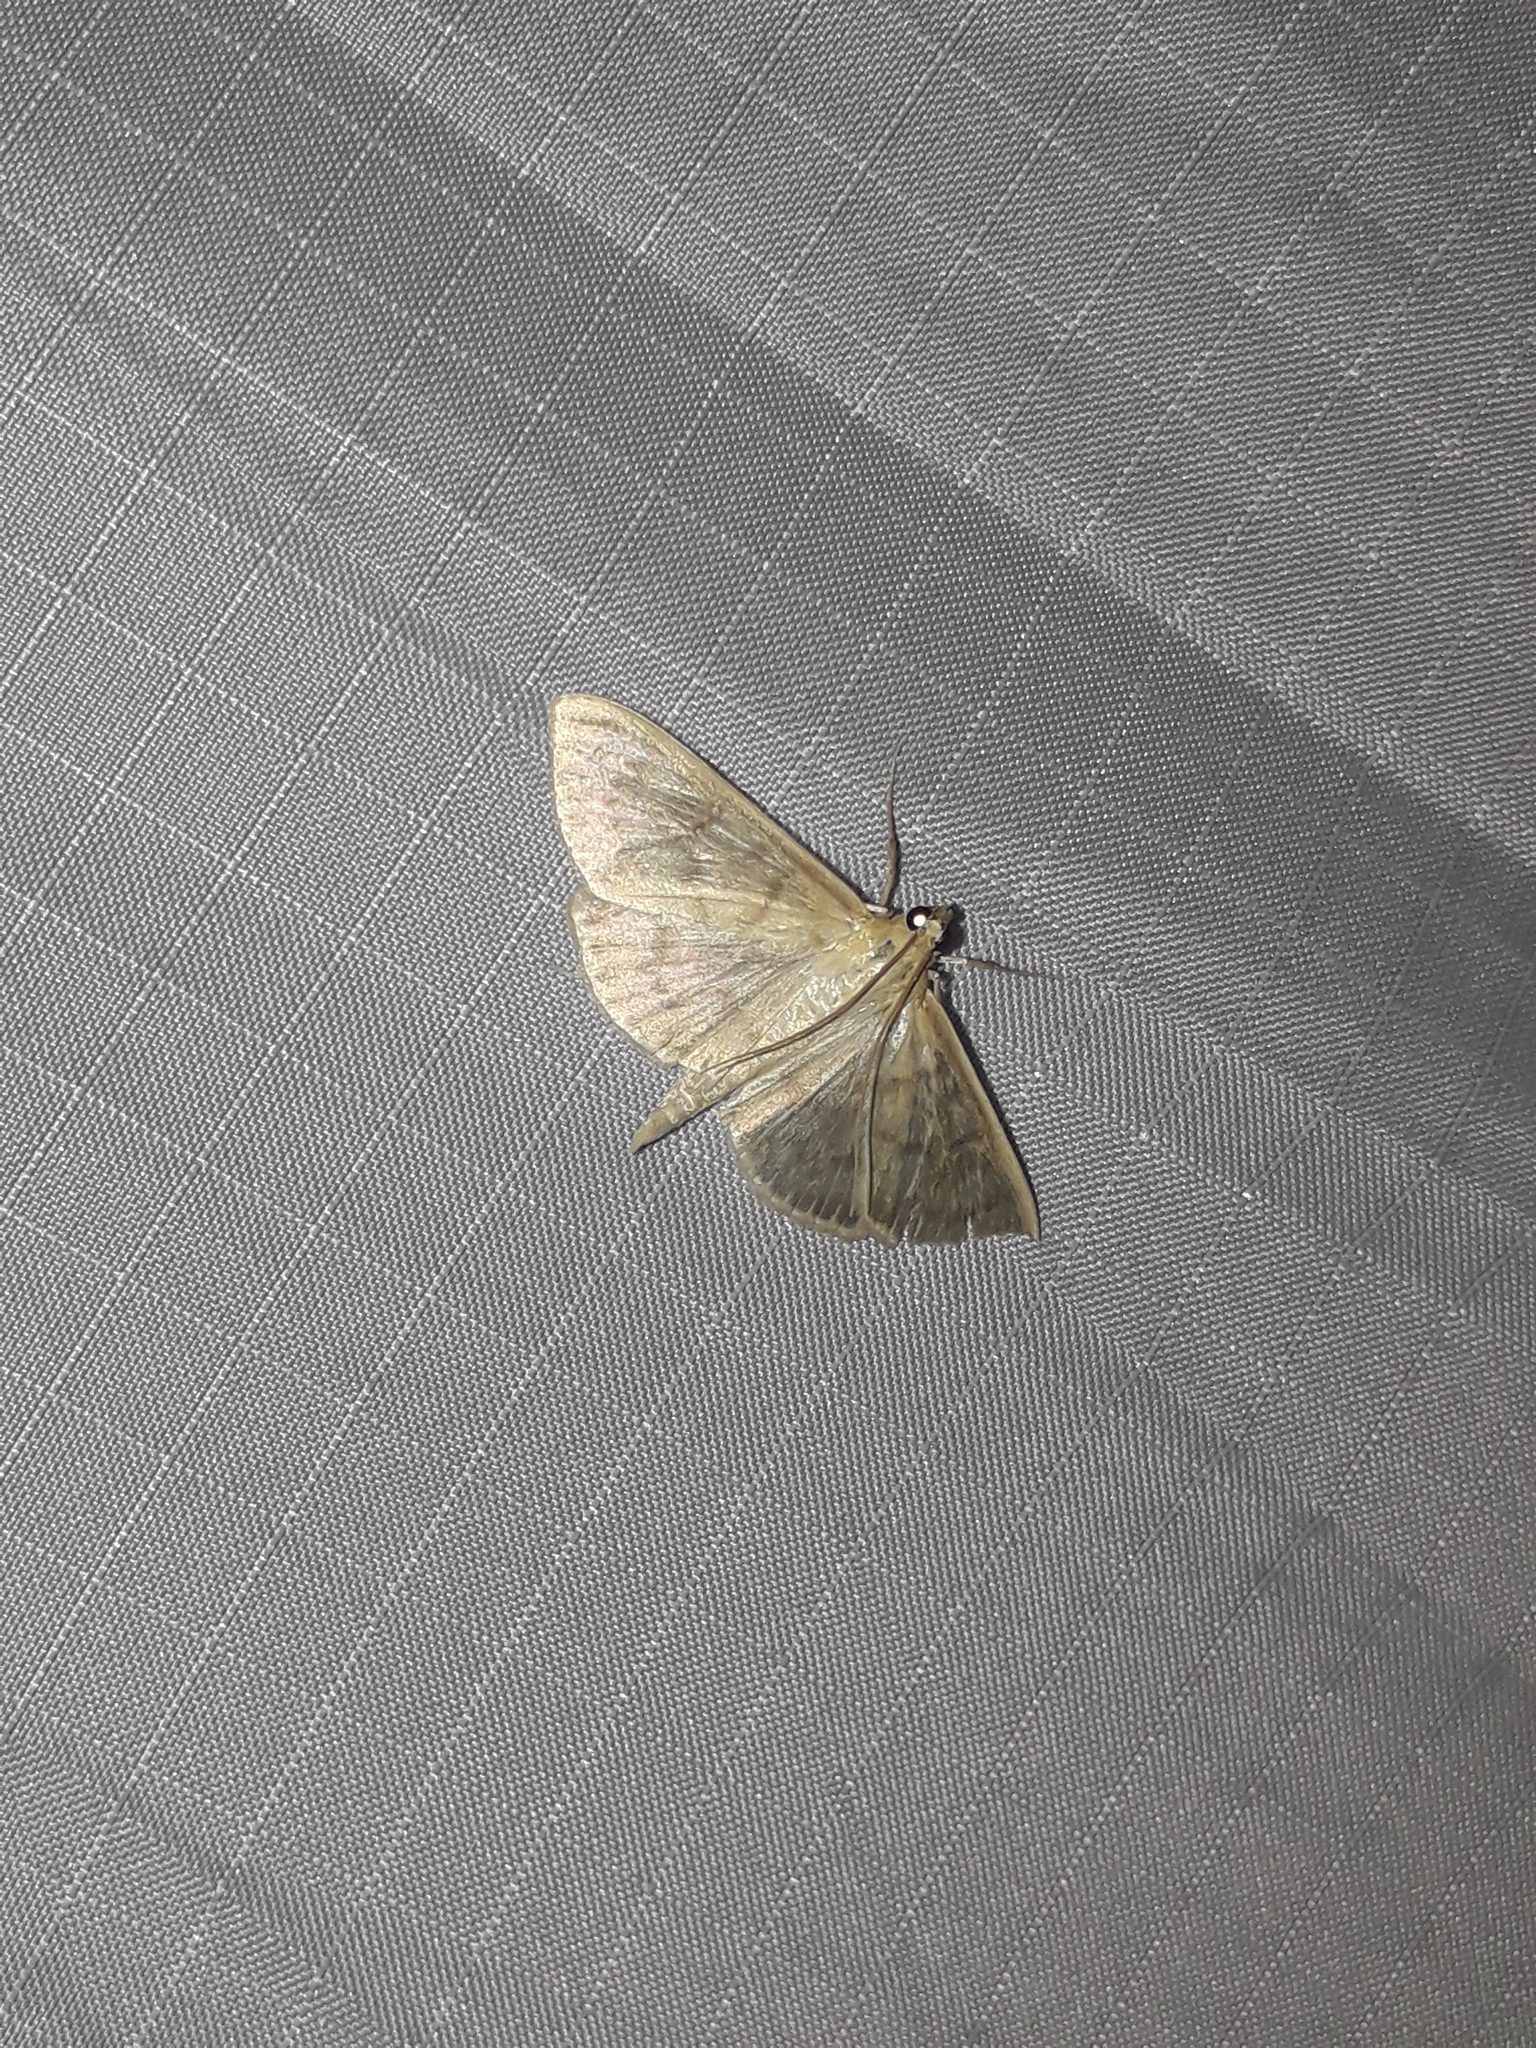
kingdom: Animalia
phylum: Arthropoda
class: Insecta
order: Lepidoptera
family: Crambidae
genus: Patania
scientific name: Patania ruralis
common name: Mother of pearl
